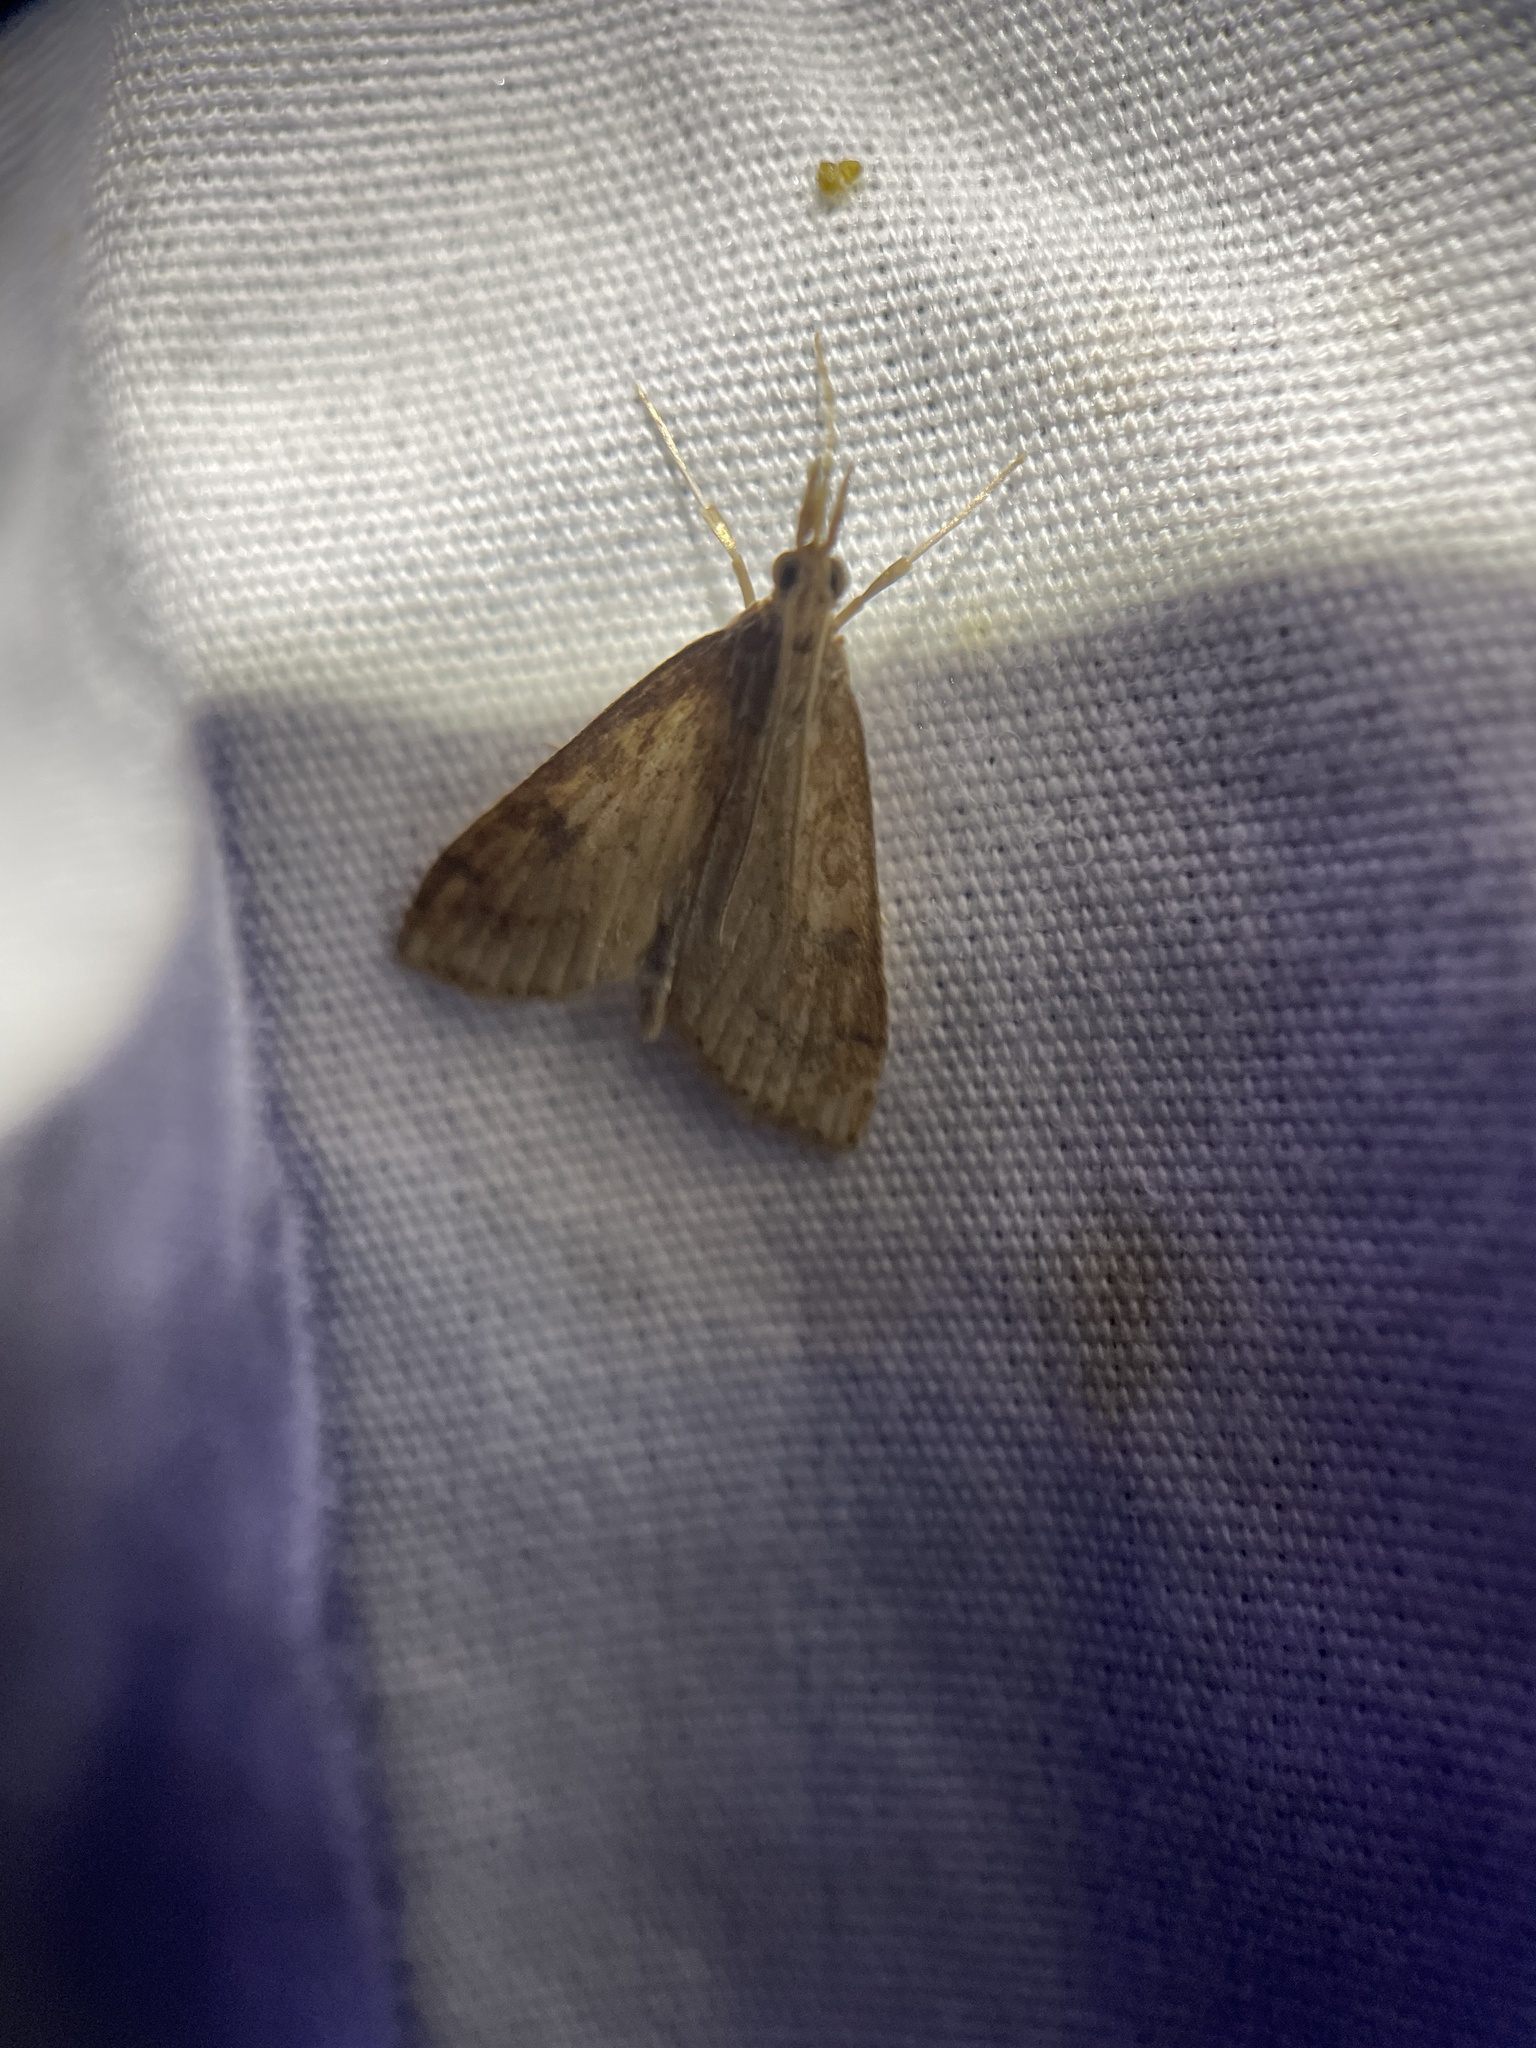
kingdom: Animalia
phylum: Arthropoda
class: Insecta
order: Lepidoptera
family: Crambidae
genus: Udea
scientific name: Udea rubigalis
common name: Celery leaftier moth
